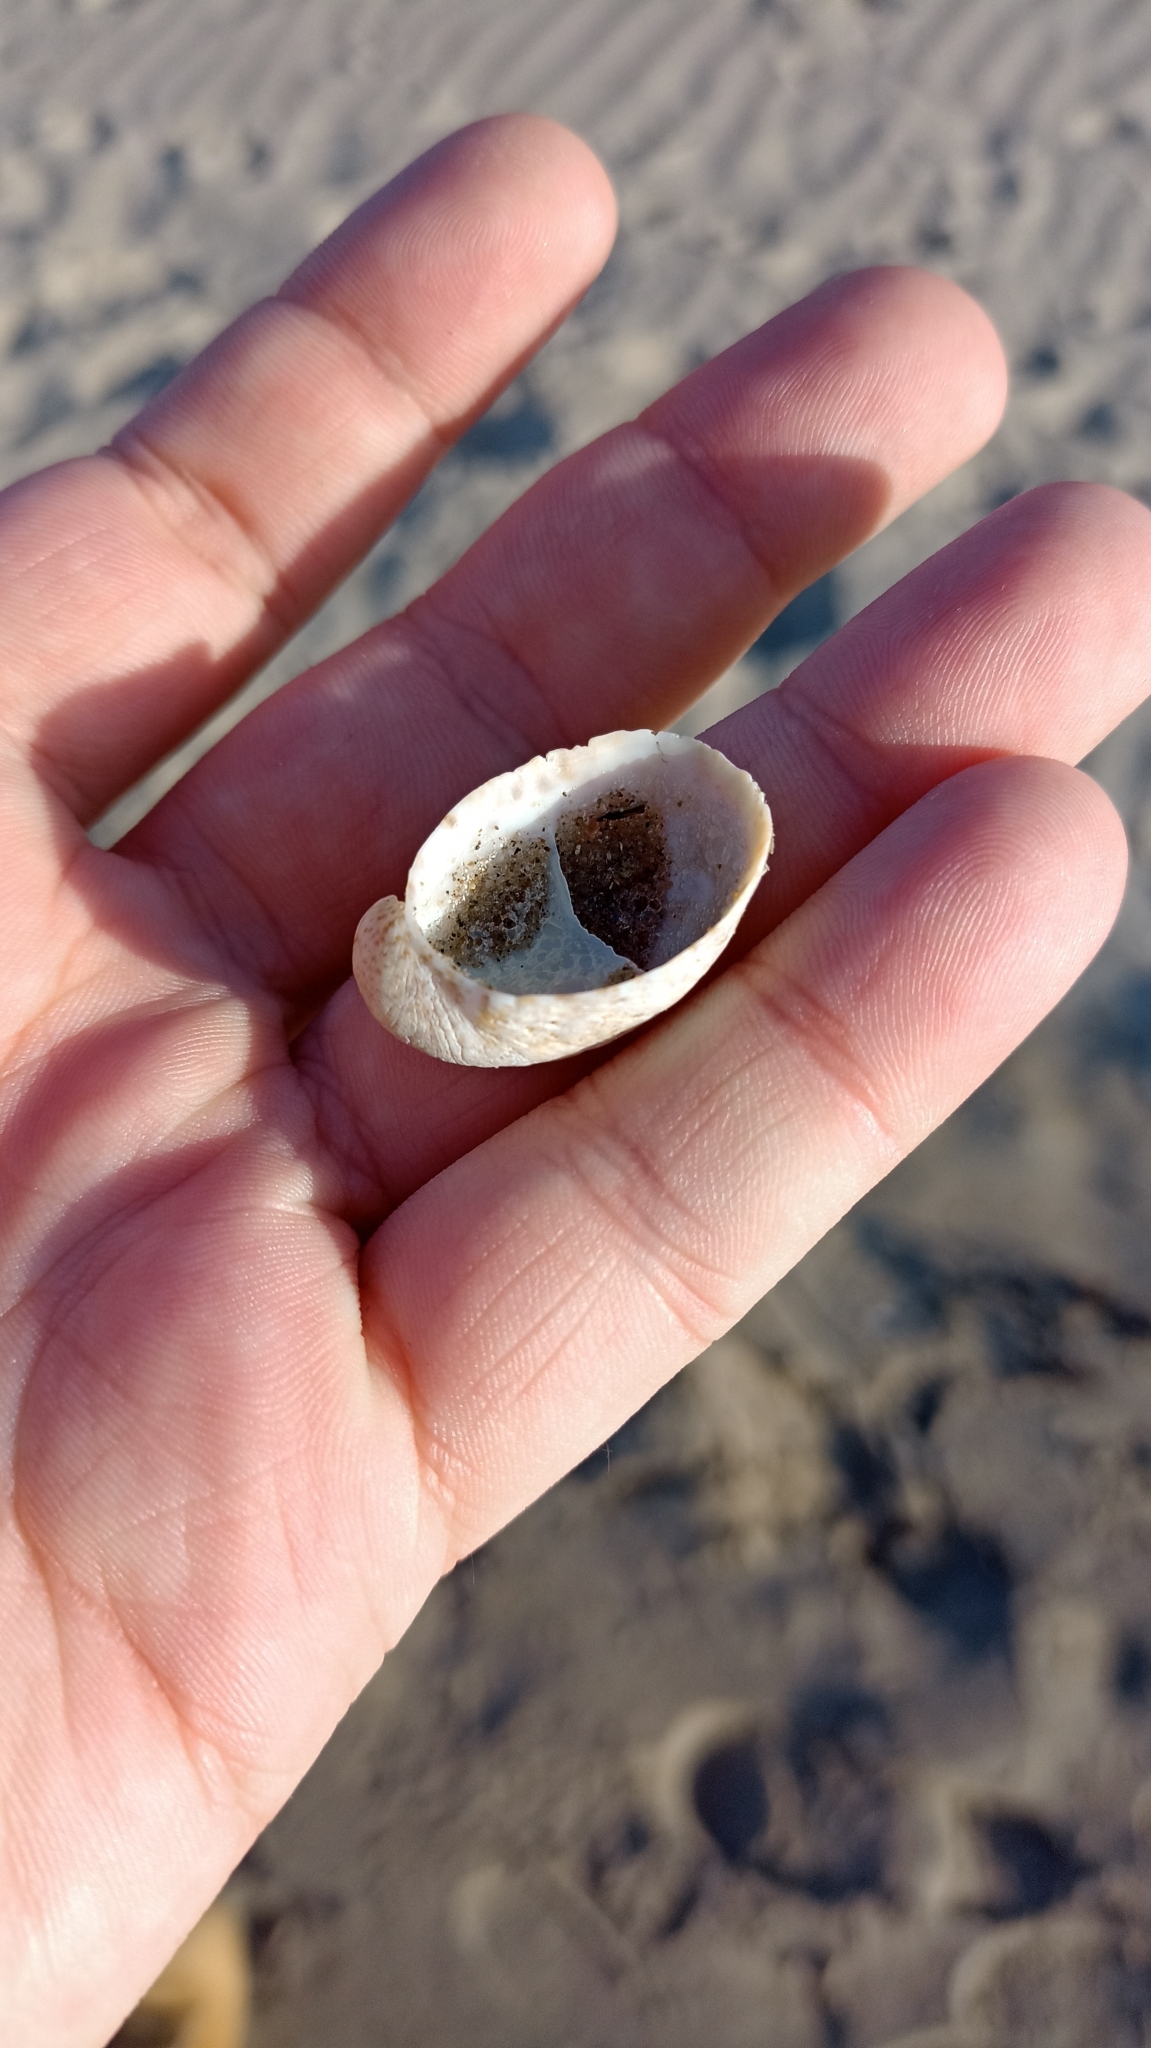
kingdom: Animalia
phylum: Mollusca
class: Gastropoda
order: Littorinimorpha
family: Calyptraeidae
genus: Crepidula
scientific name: Crepidula fornicata
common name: Slipper limpet
